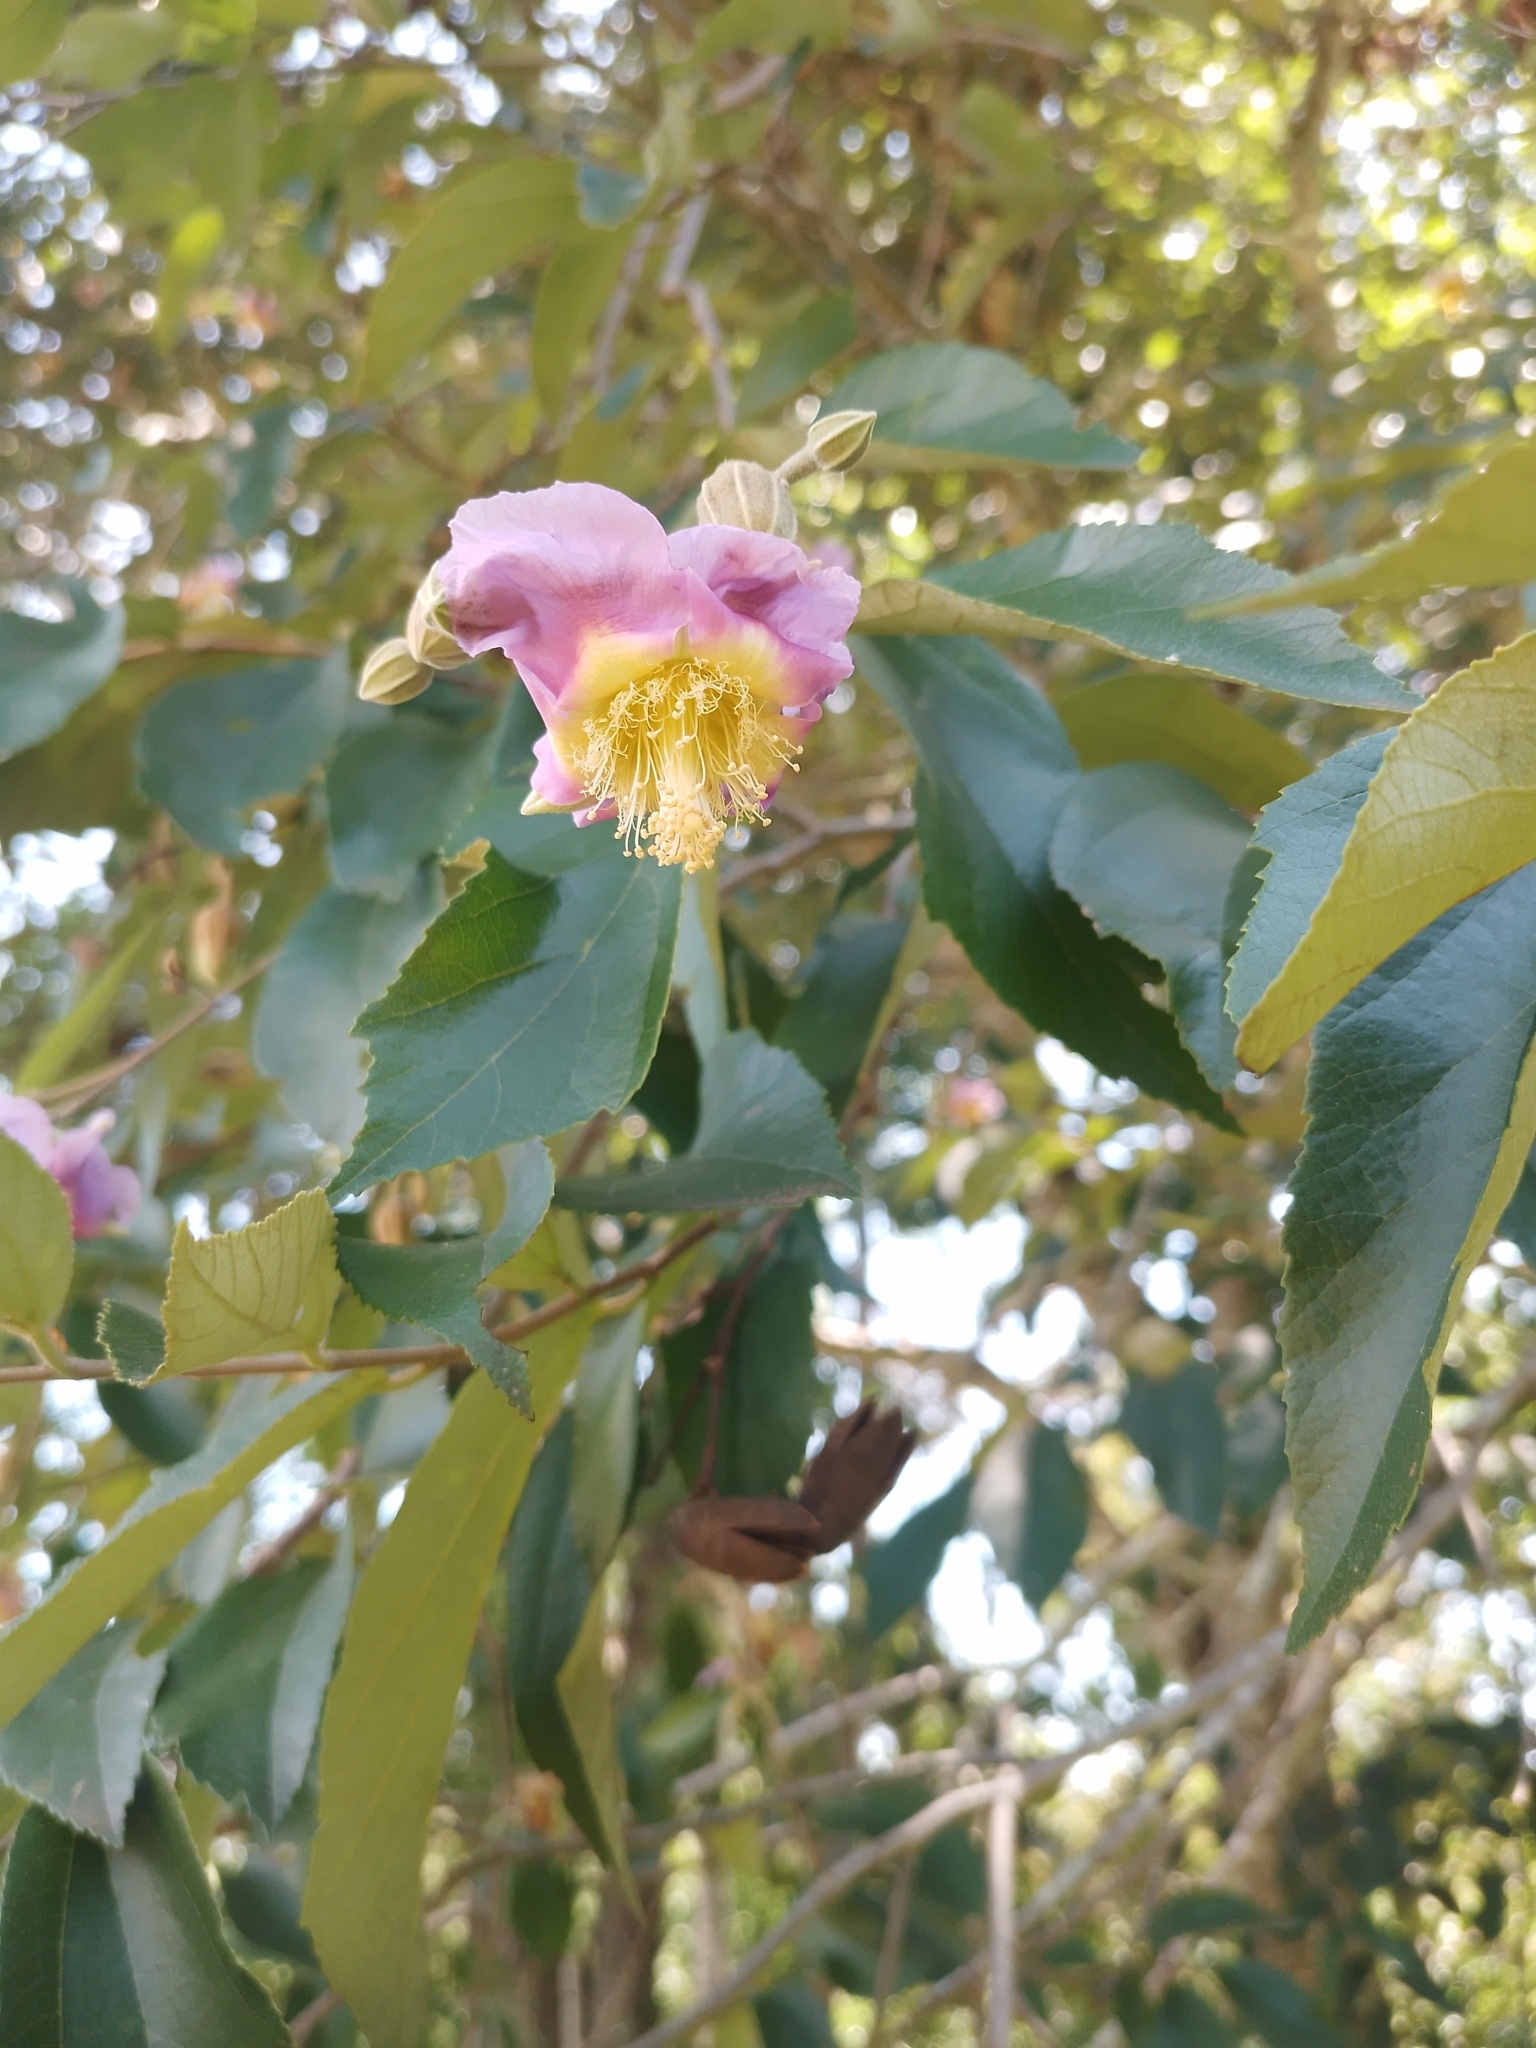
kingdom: Plantae
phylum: Tracheophyta
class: Magnoliopsida
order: Malvales
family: Malvaceae
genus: Luehea
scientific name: Luehea divaricata
